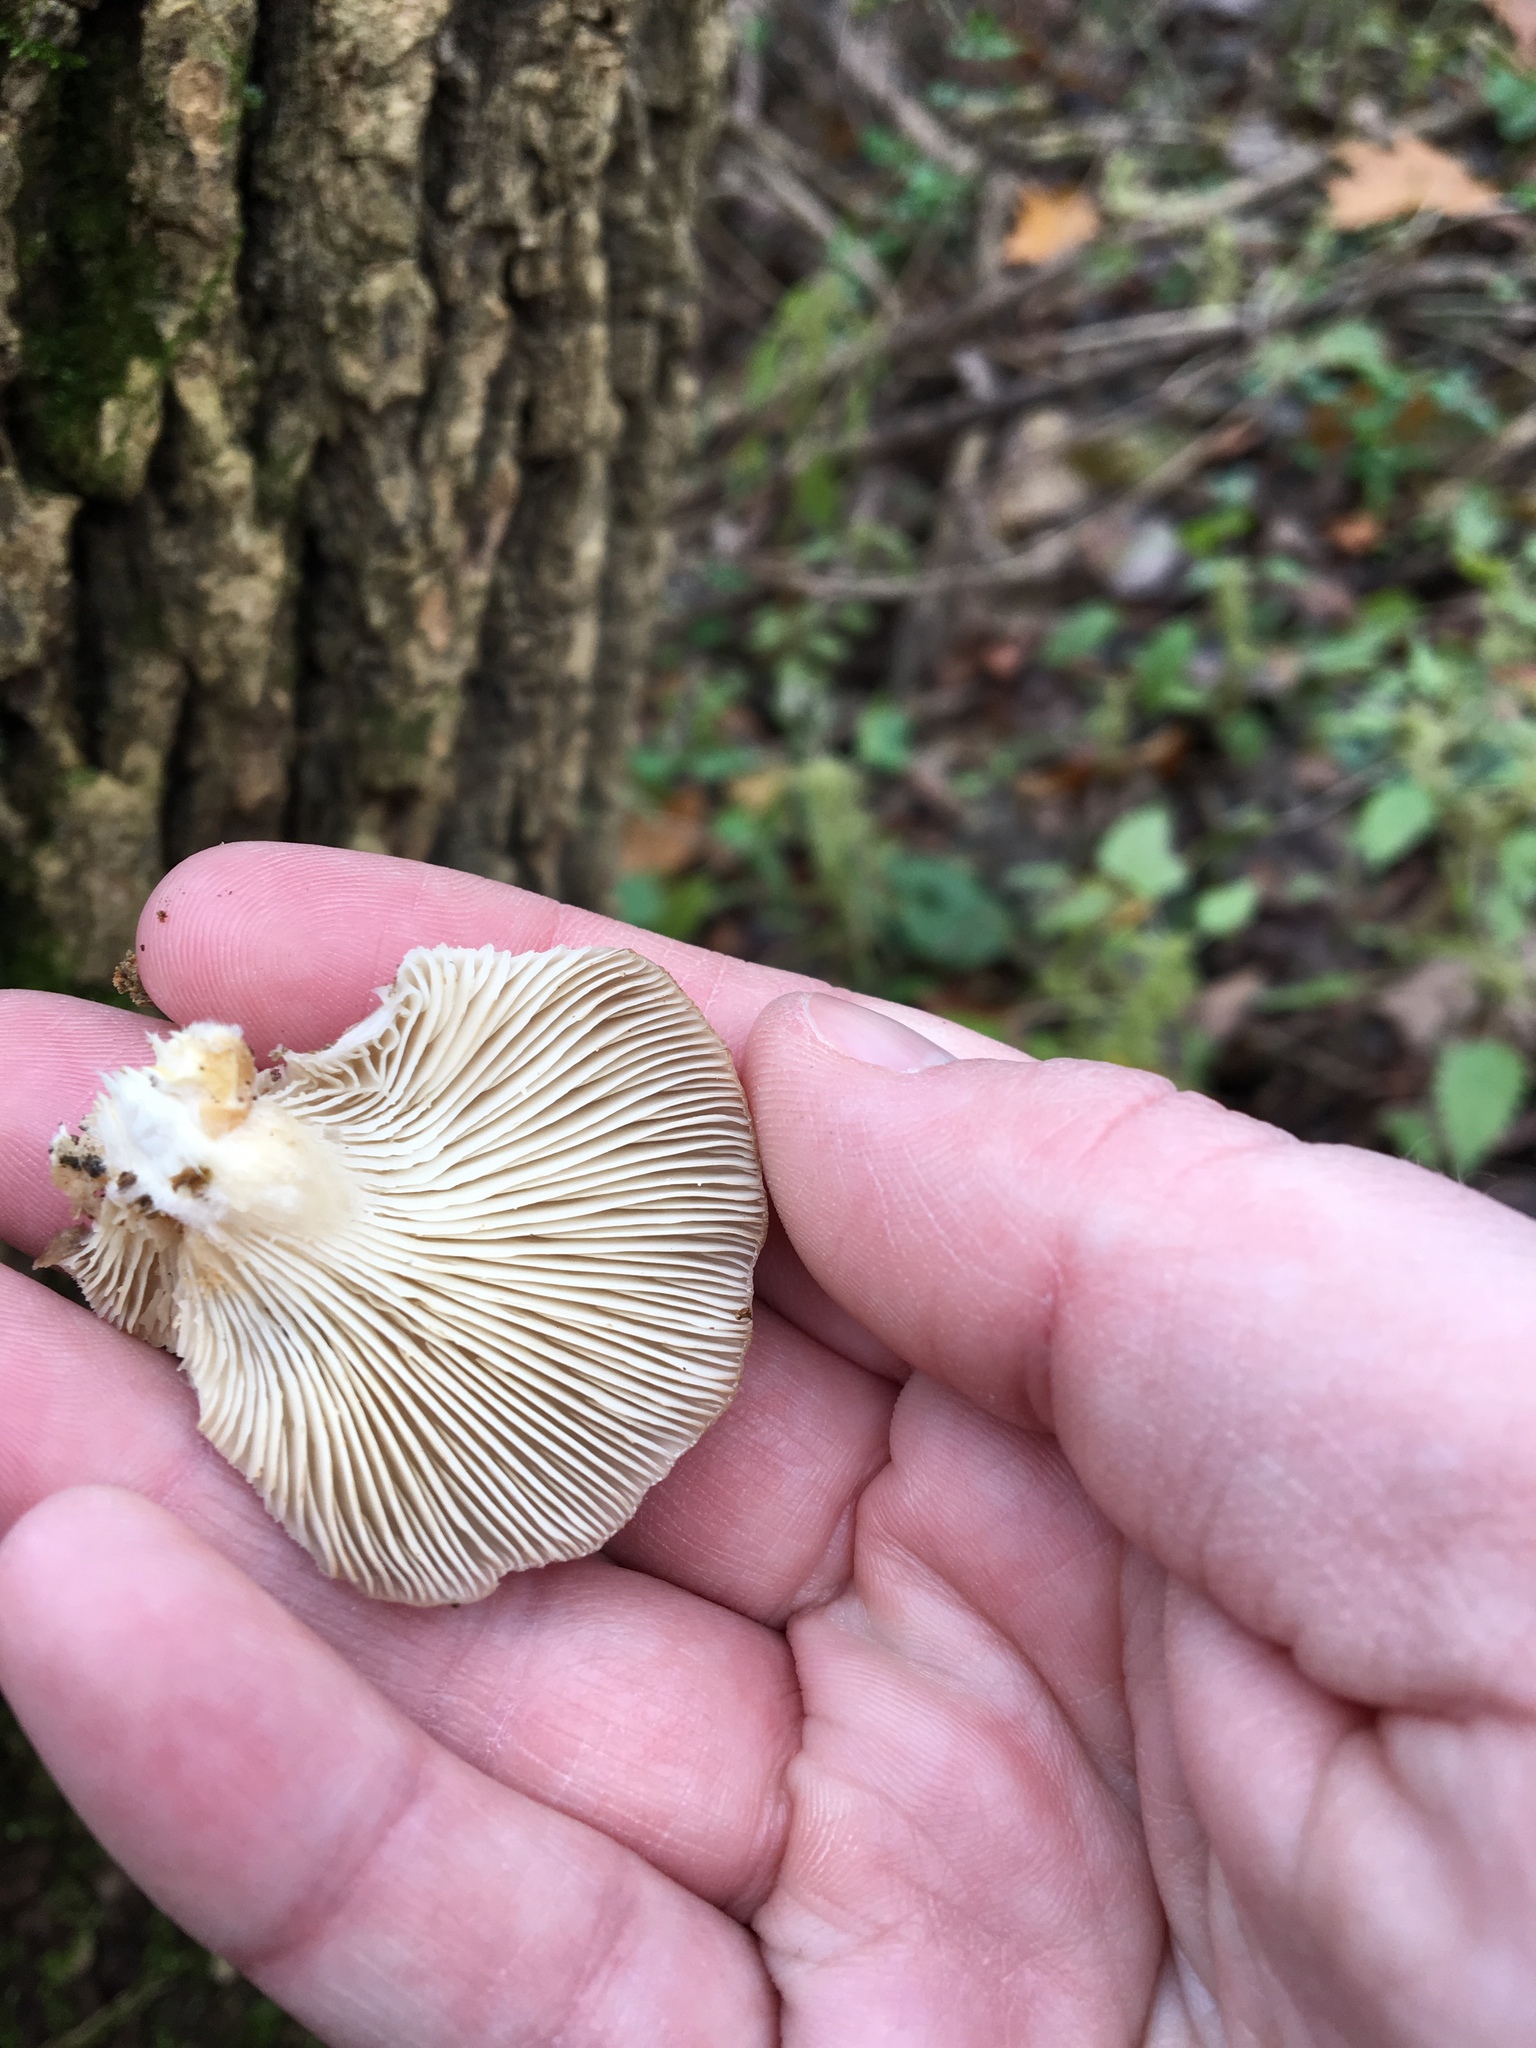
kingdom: Fungi
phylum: Basidiomycota
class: Agaricomycetes
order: Agaricales
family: Pleurotaceae
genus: Pleurotus
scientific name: Pleurotus ostreatus
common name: Oyster mushroom
